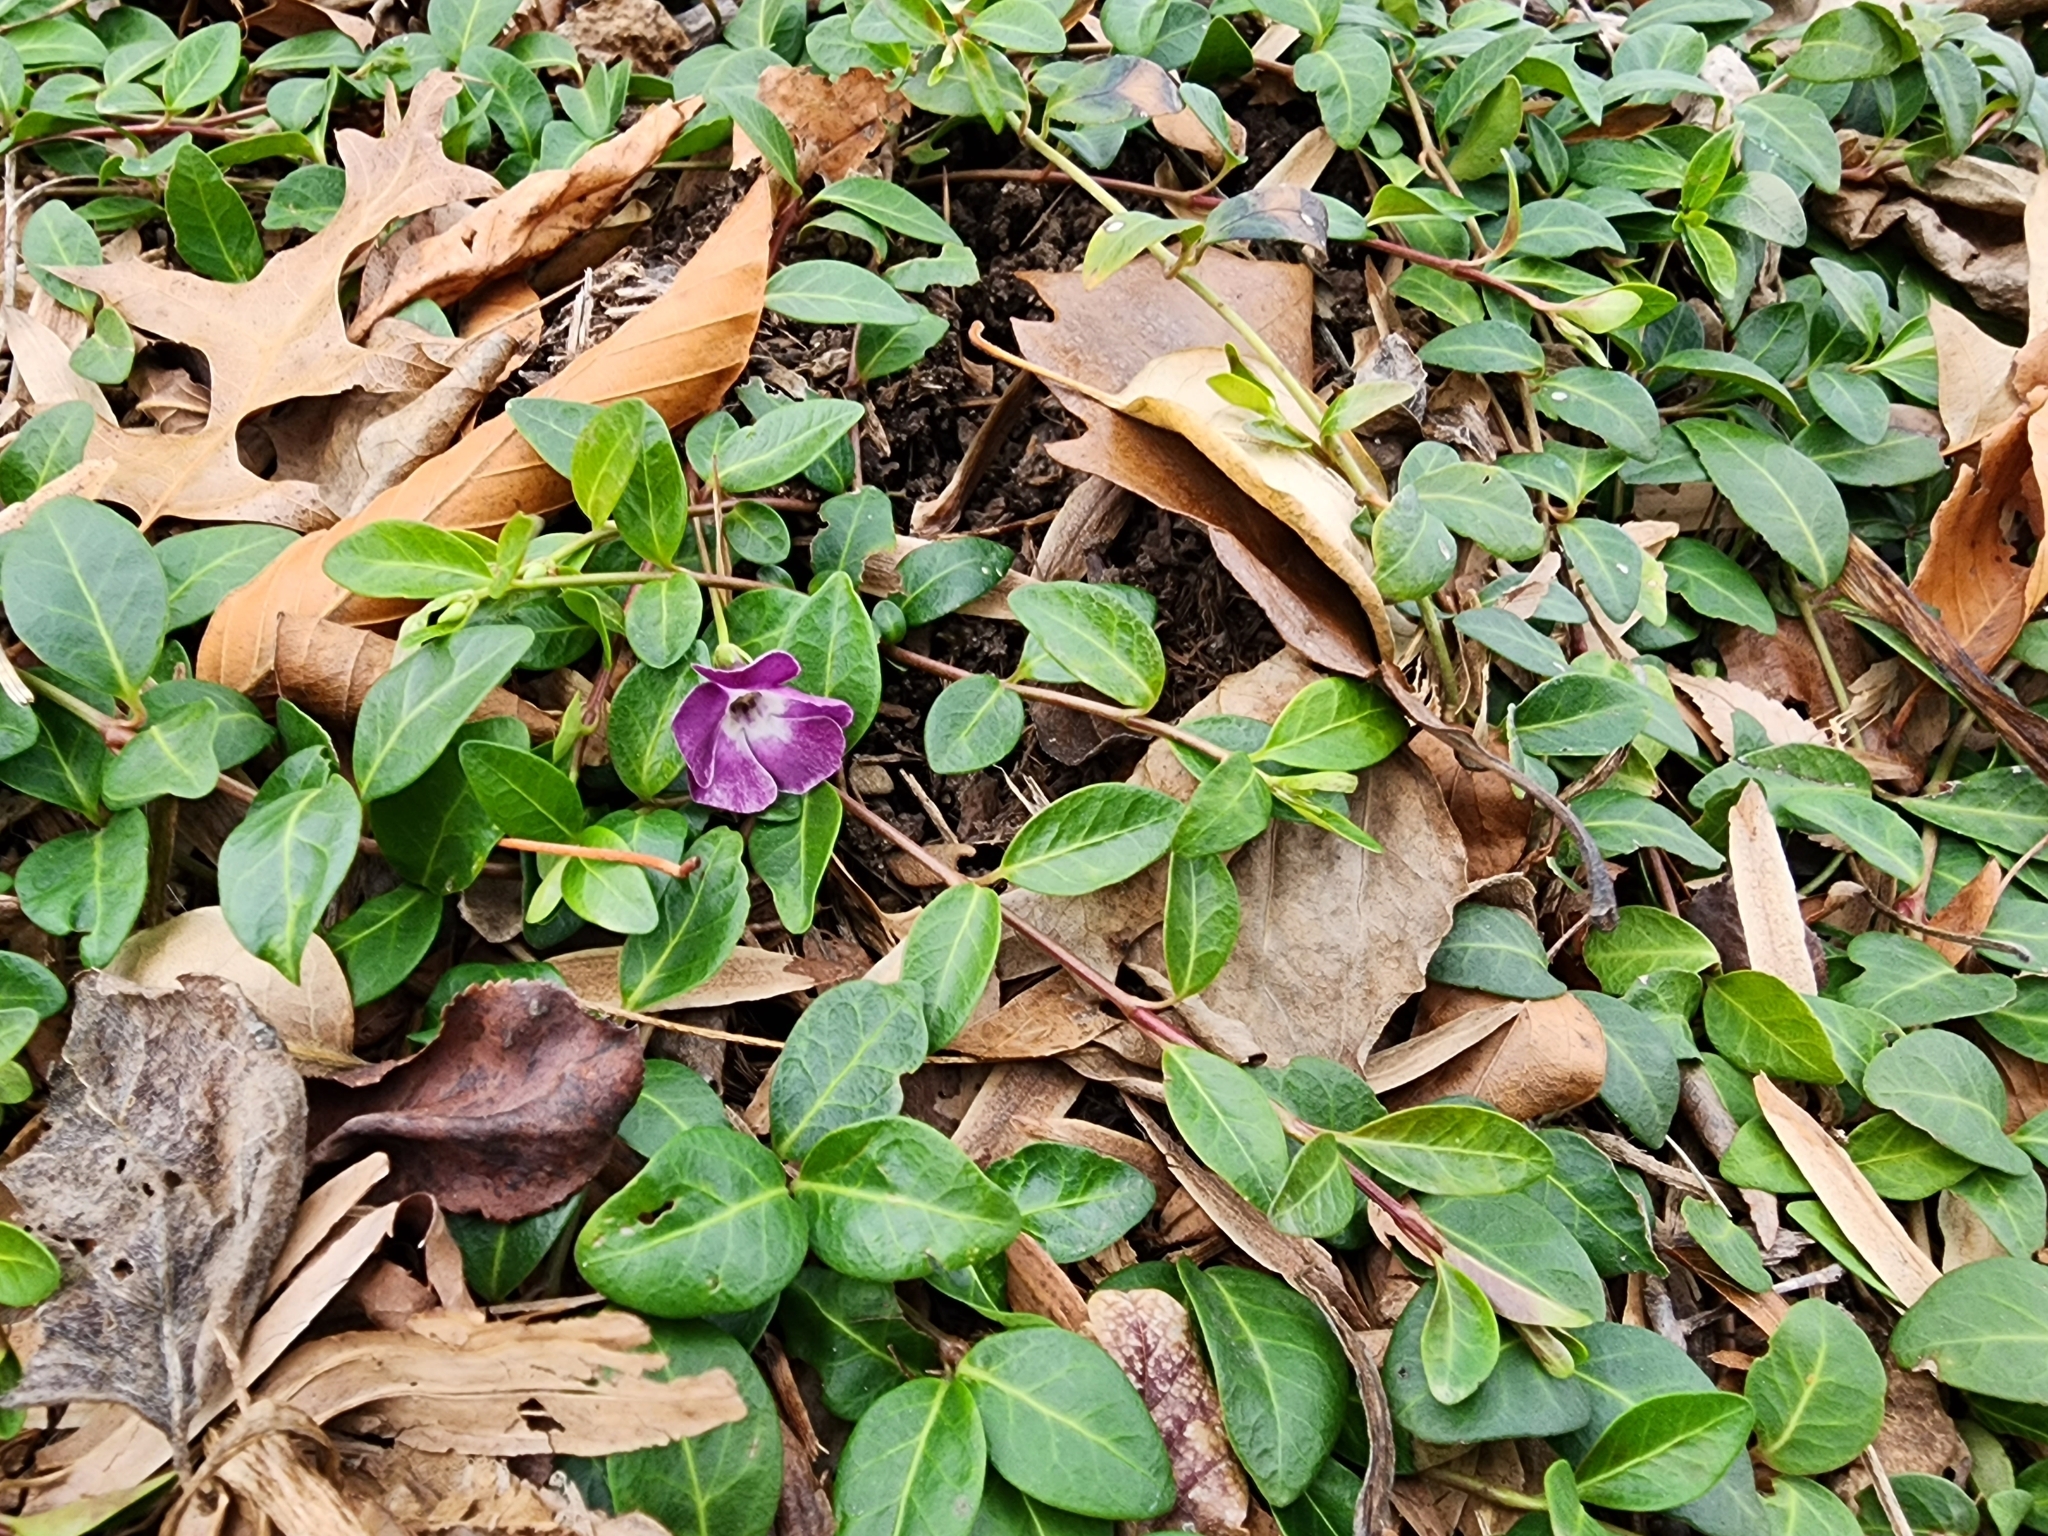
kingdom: Plantae
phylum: Tracheophyta
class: Magnoliopsida
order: Gentianales
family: Apocynaceae
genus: Vinca
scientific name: Vinca minor
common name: Lesser periwinkle
